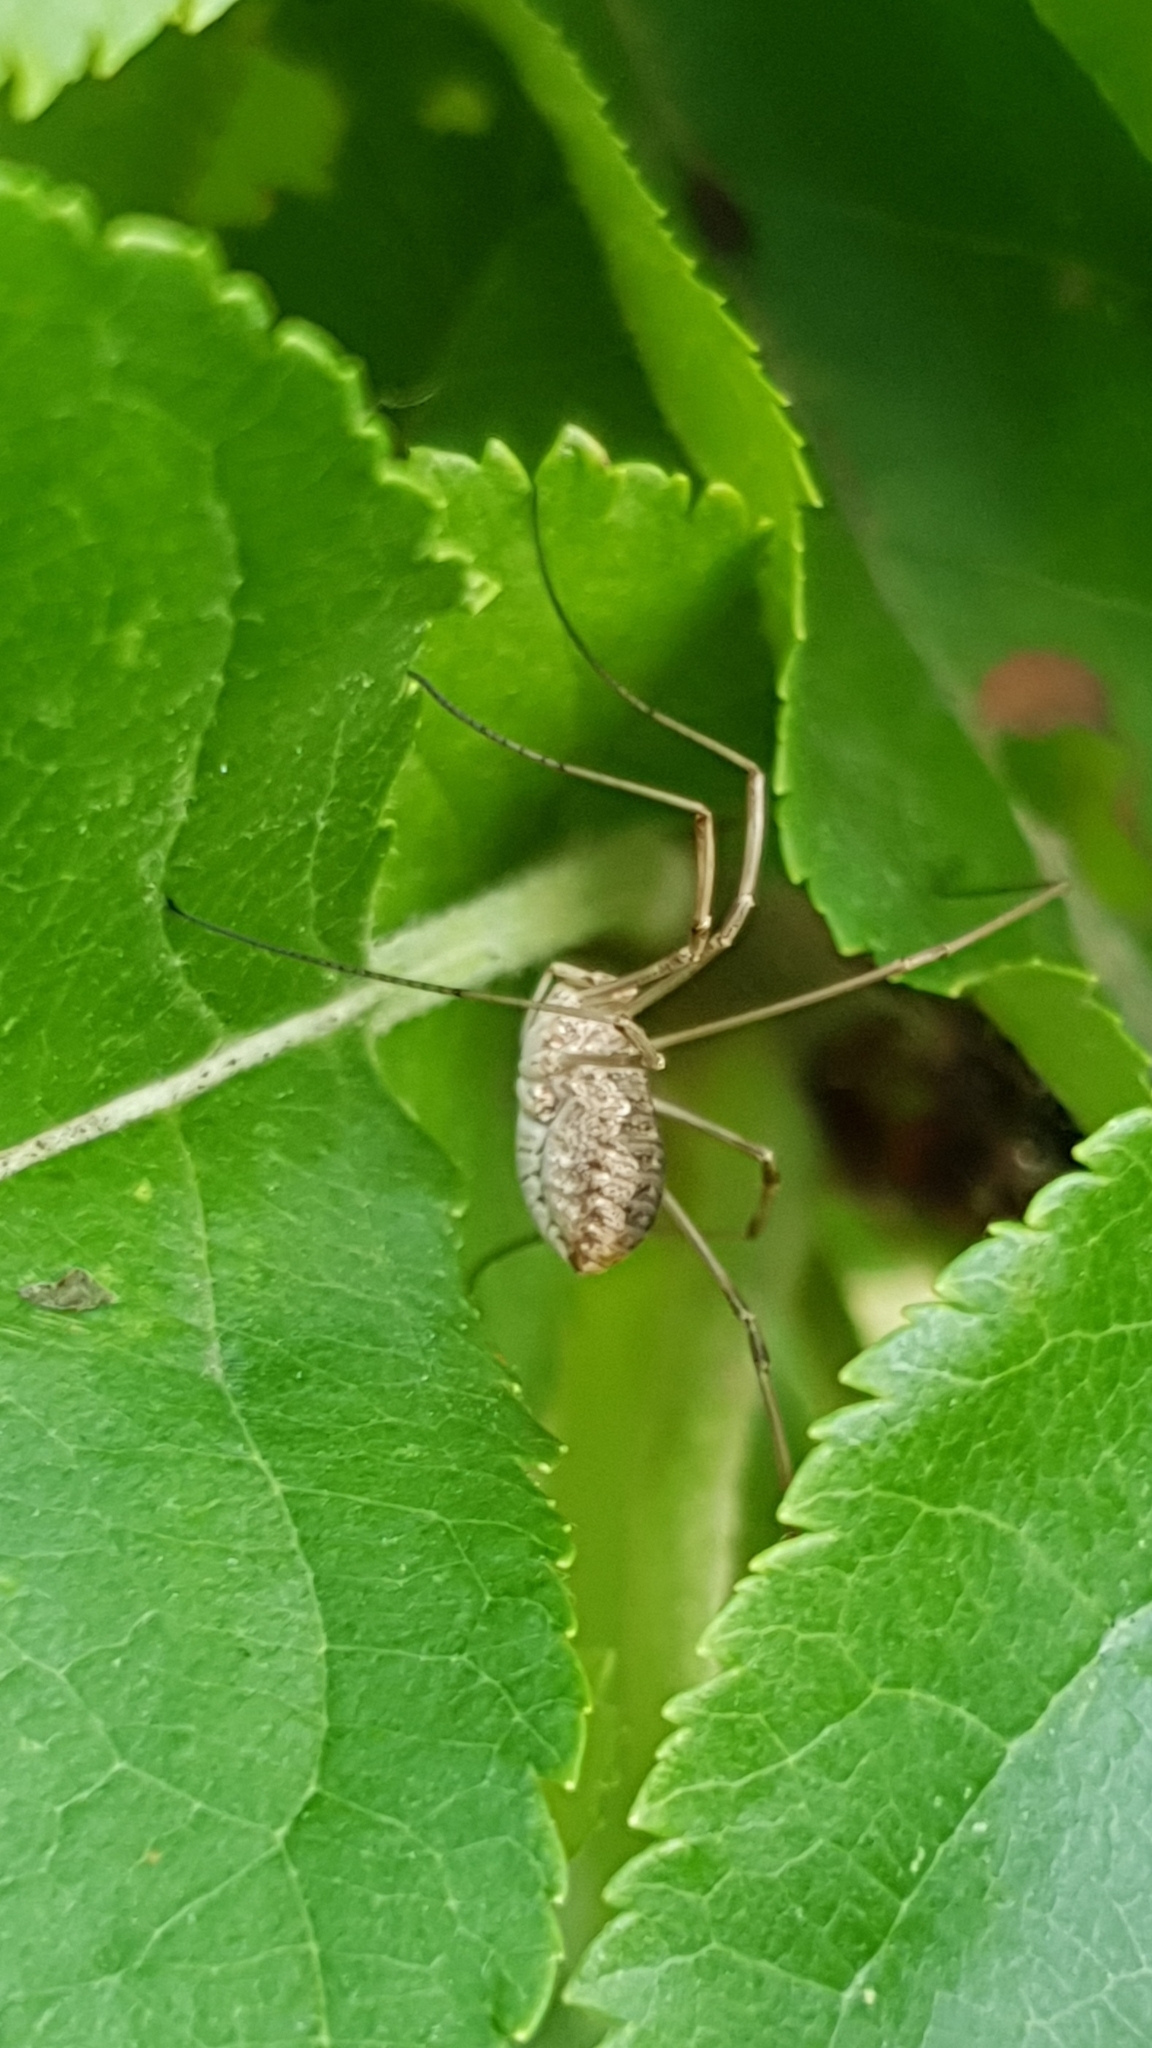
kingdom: Animalia
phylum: Arthropoda
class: Arachnida
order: Opiliones
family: Phalangiidae
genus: Phalangium
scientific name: Phalangium opilio
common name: Daddy longleg
